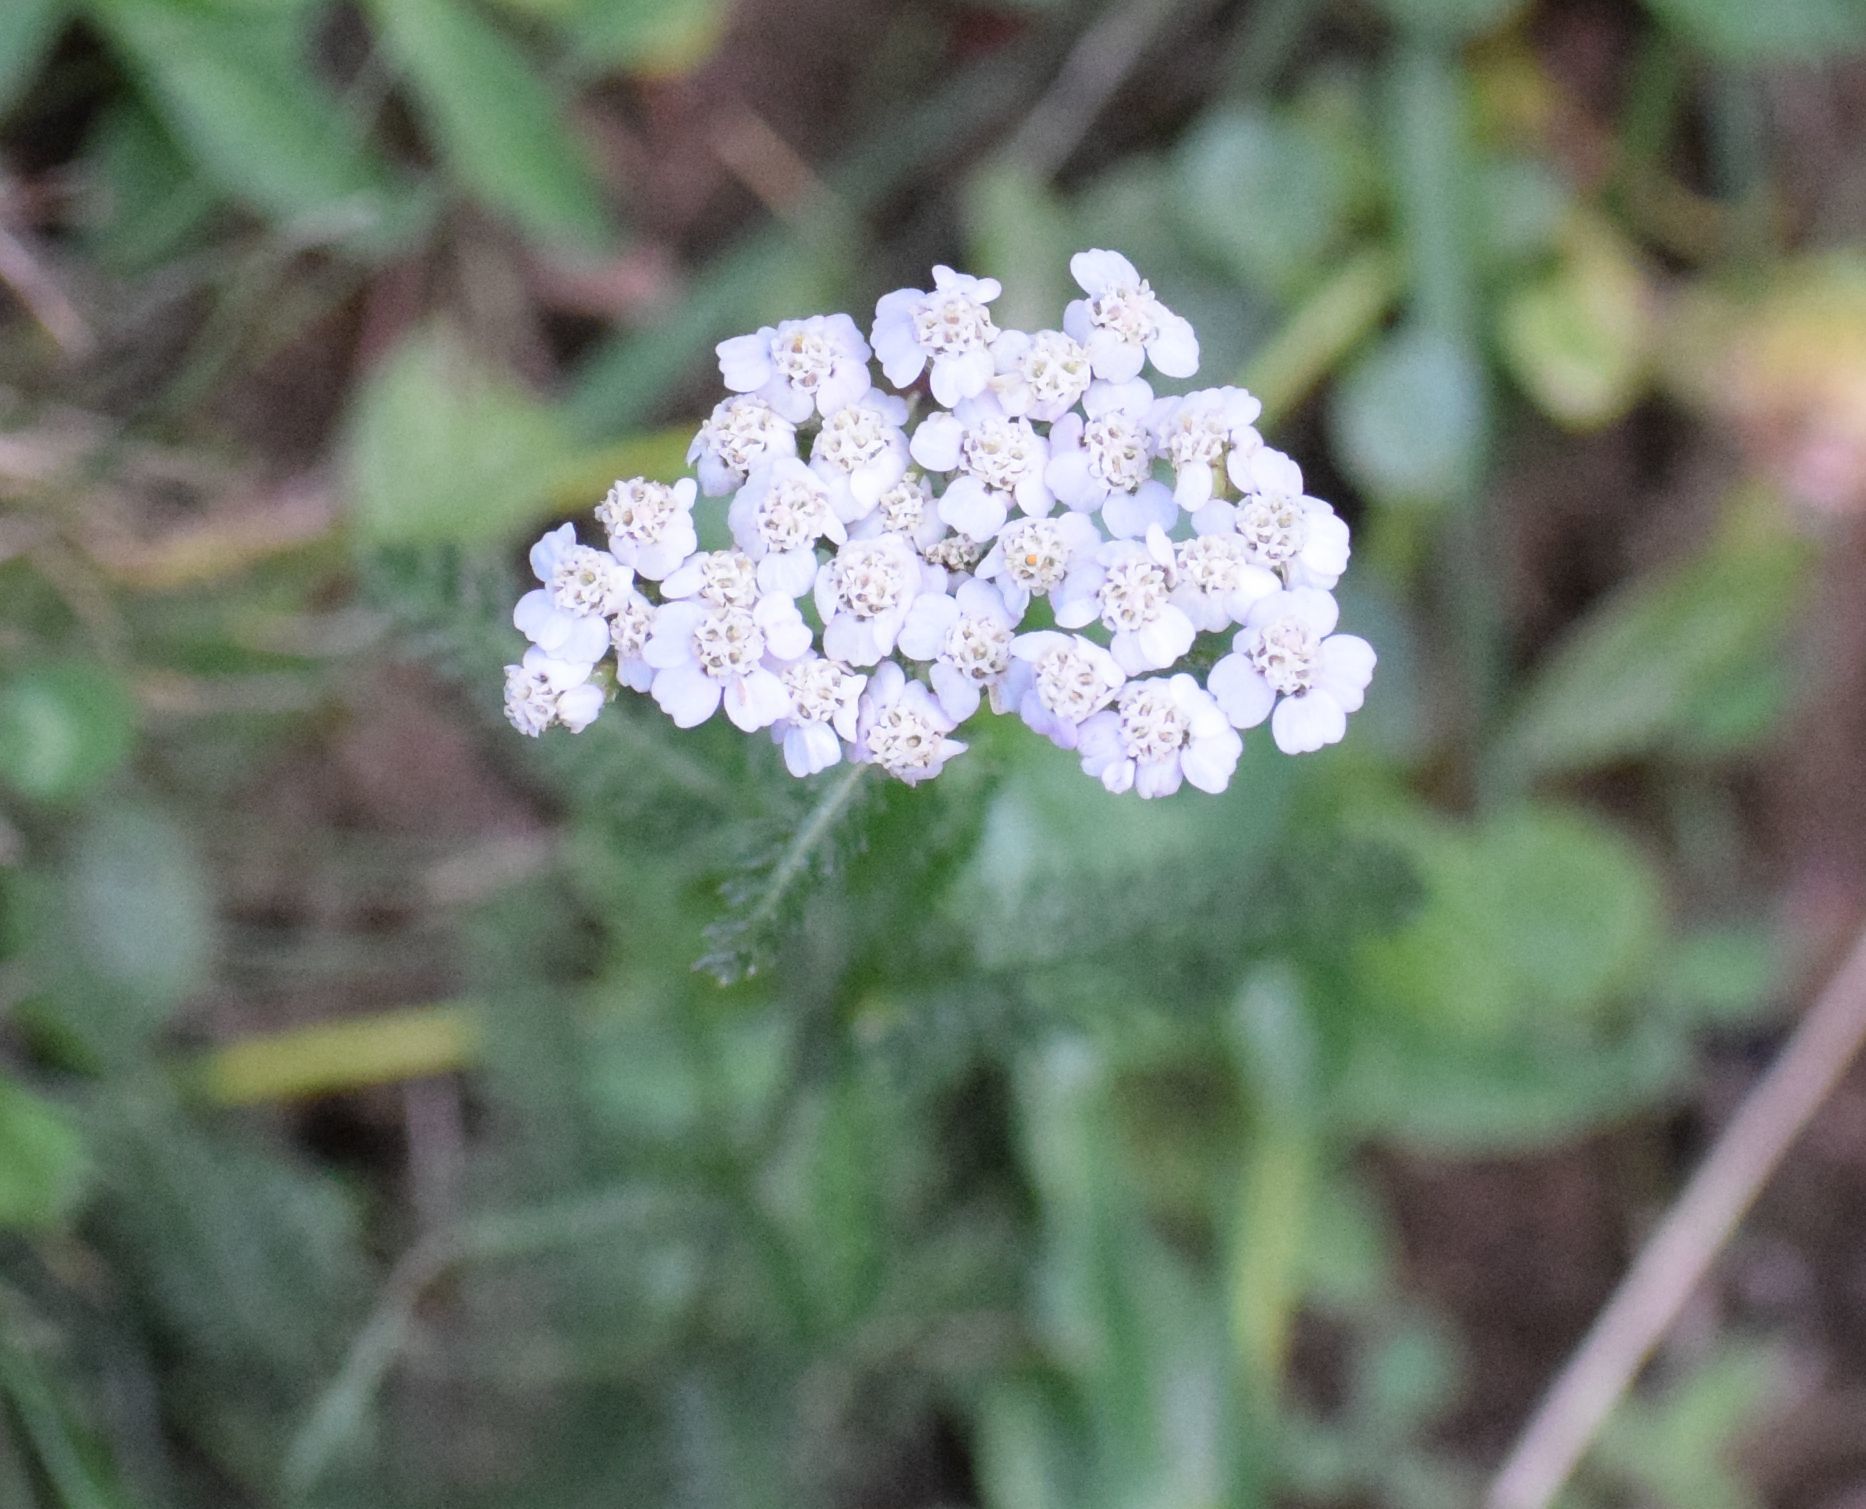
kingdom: Plantae
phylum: Tracheophyta
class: Magnoliopsida
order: Asterales
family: Asteraceae
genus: Achillea
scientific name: Achillea
